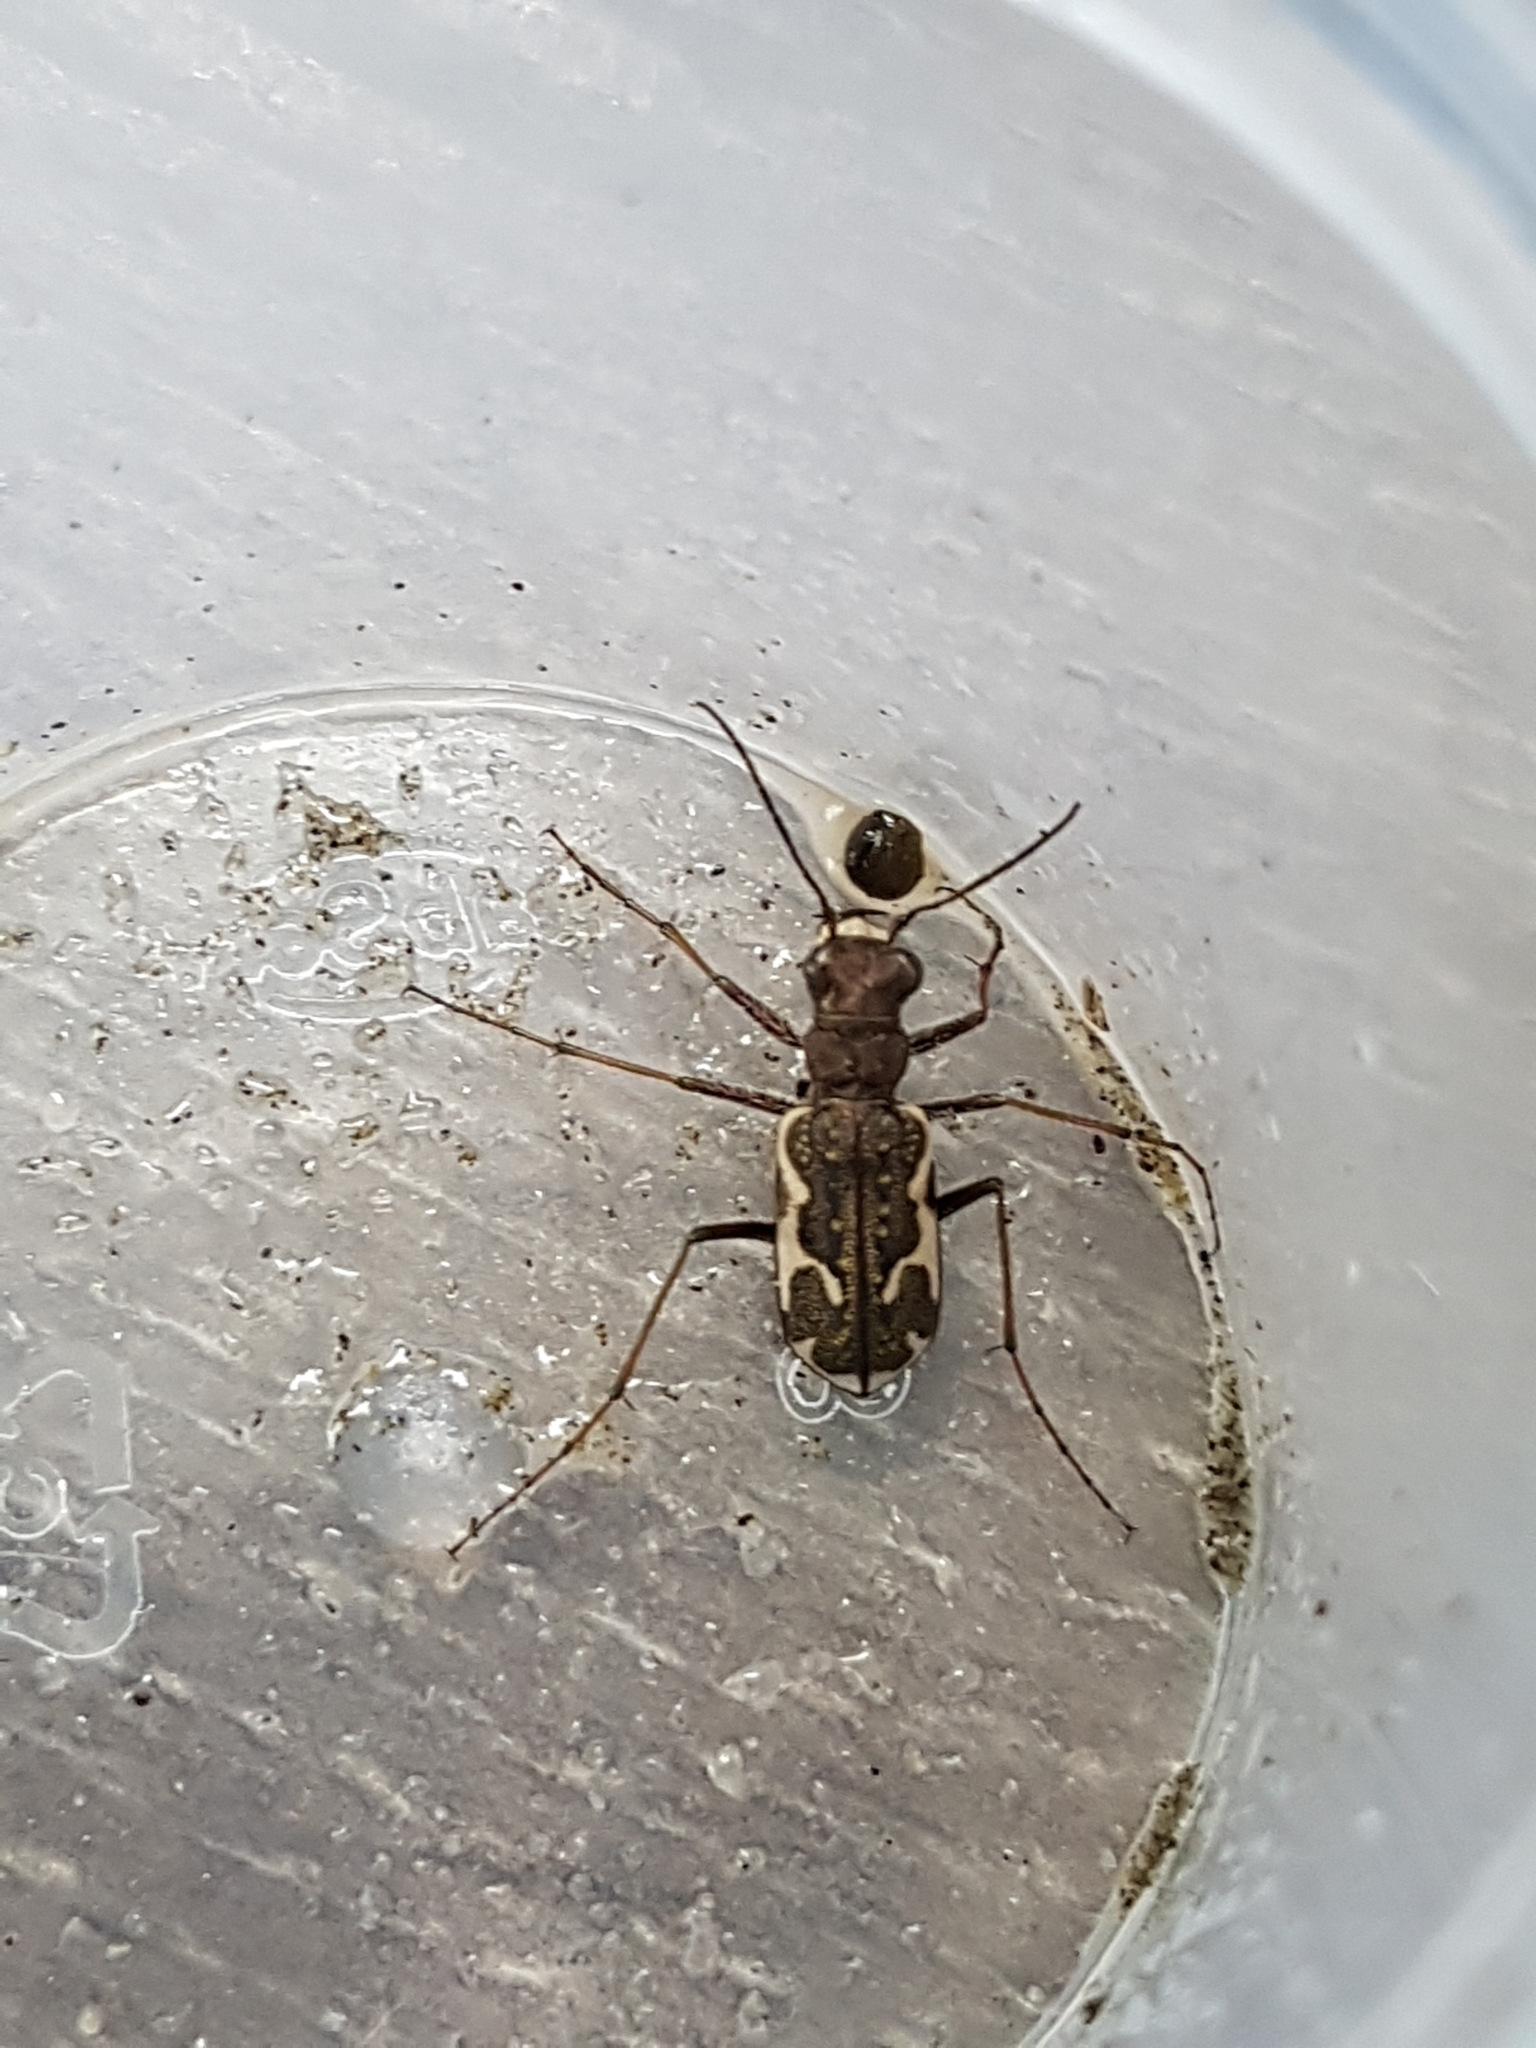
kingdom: Animalia
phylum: Arthropoda
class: Insecta
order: Coleoptera
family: Carabidae
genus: Neocicindela
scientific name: Neocicindela tuberculata
